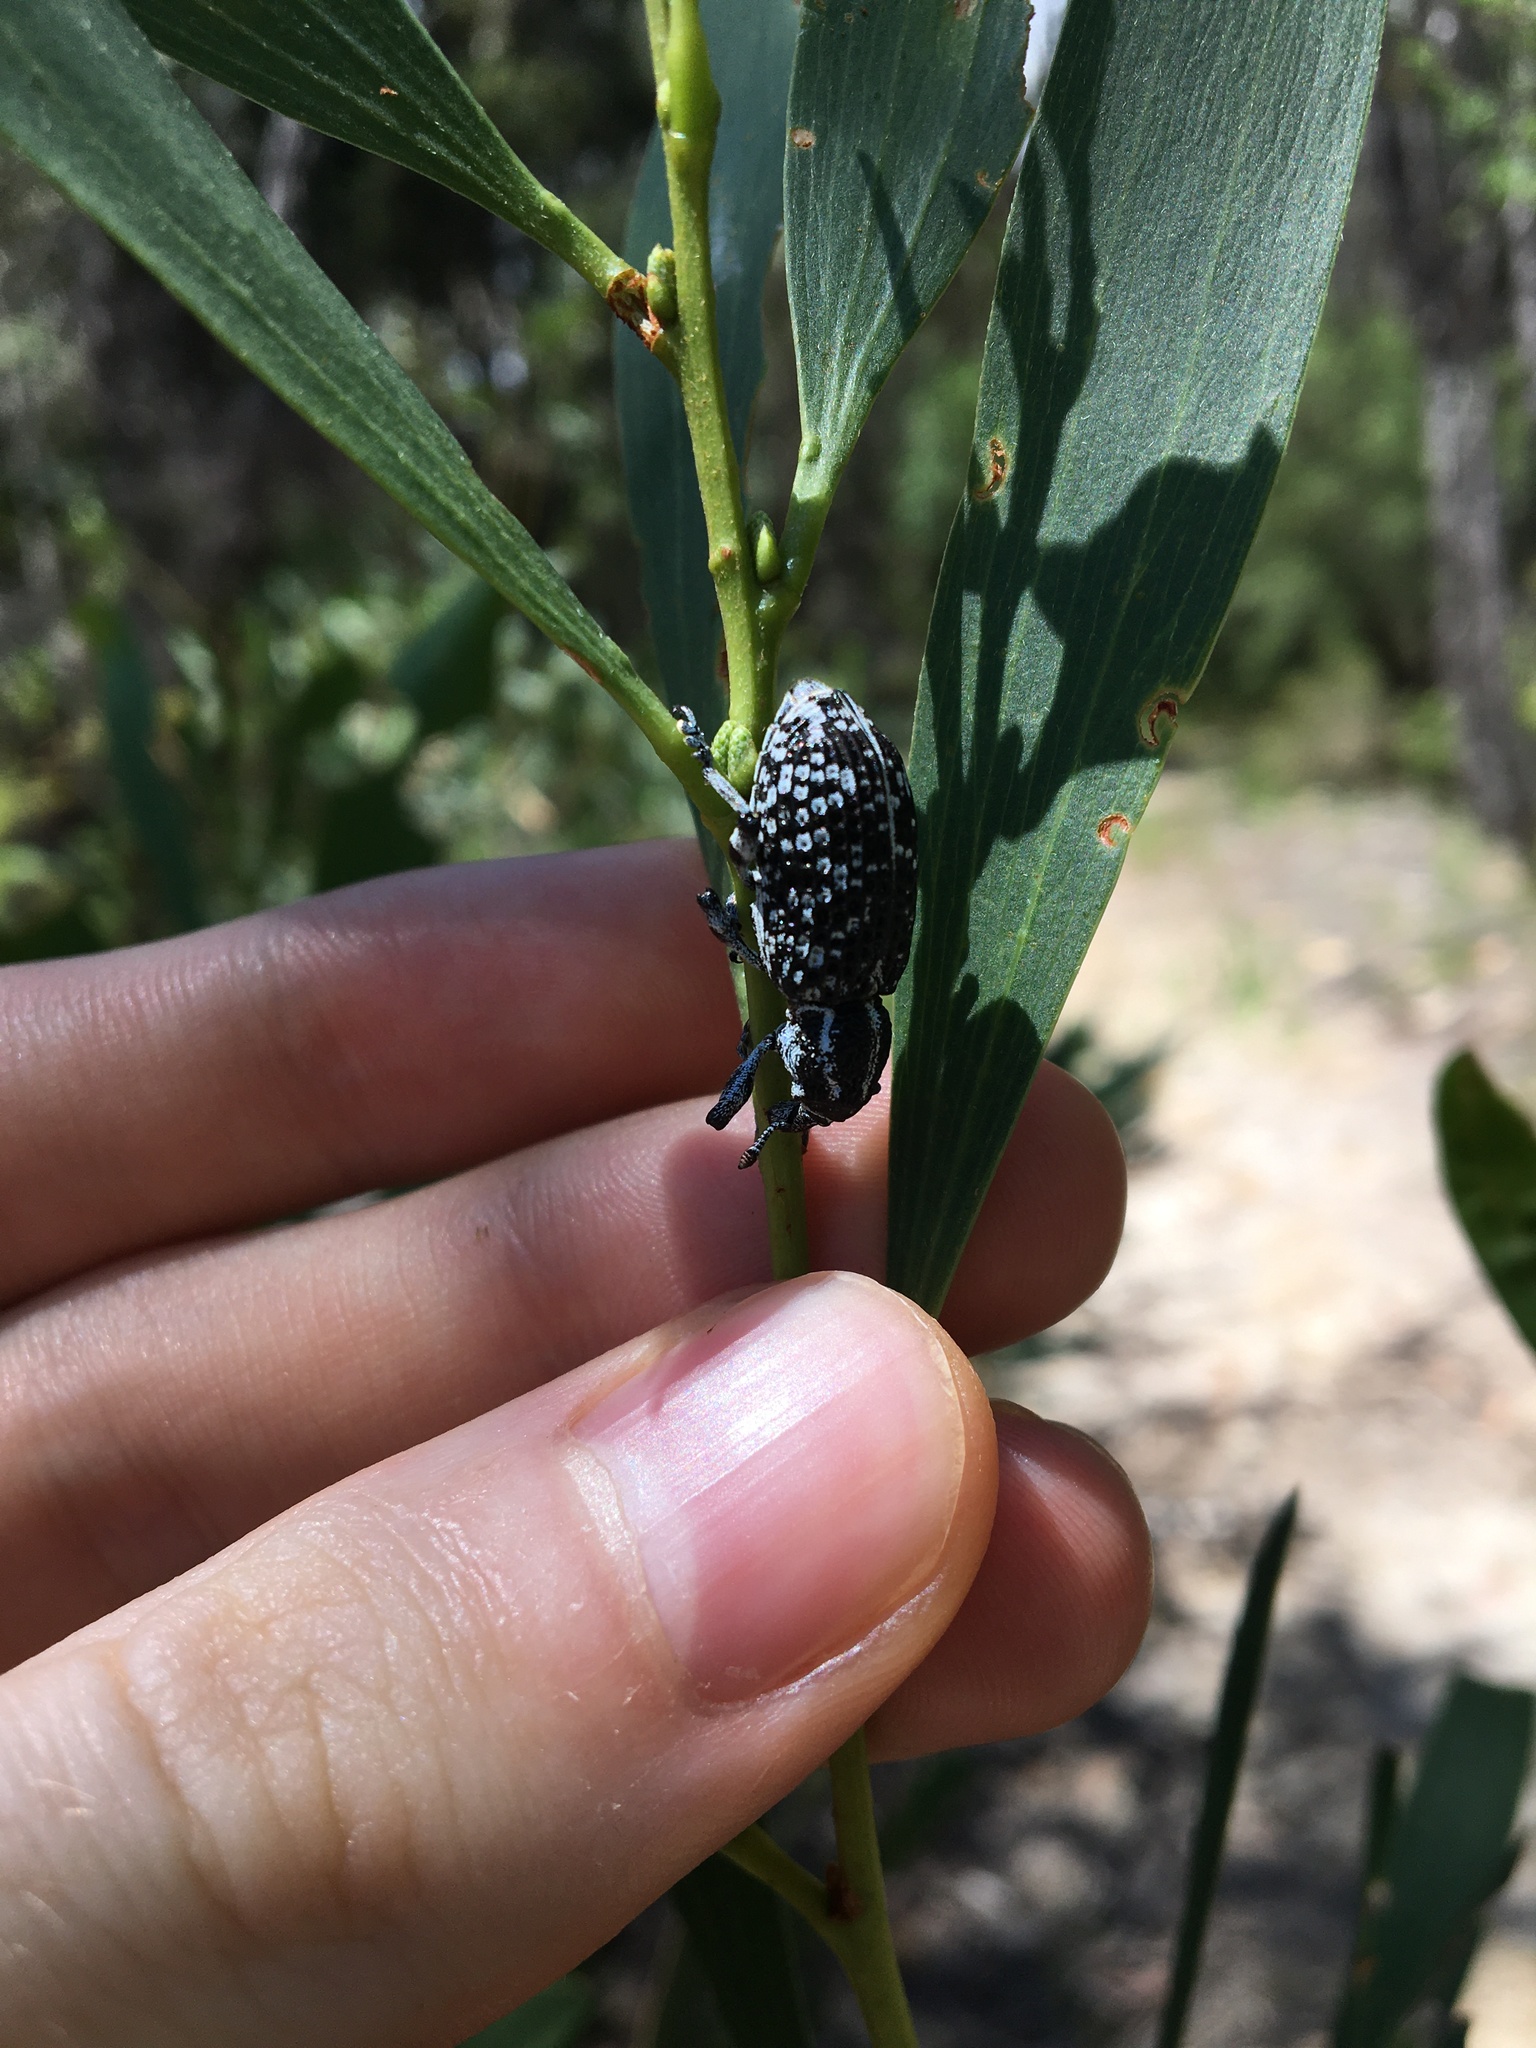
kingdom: Animalia
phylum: Arthropoda
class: Insecta
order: Coleoptera
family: Curculionidae
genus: Chrysolopus
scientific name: Chrysolopus spectabilis
